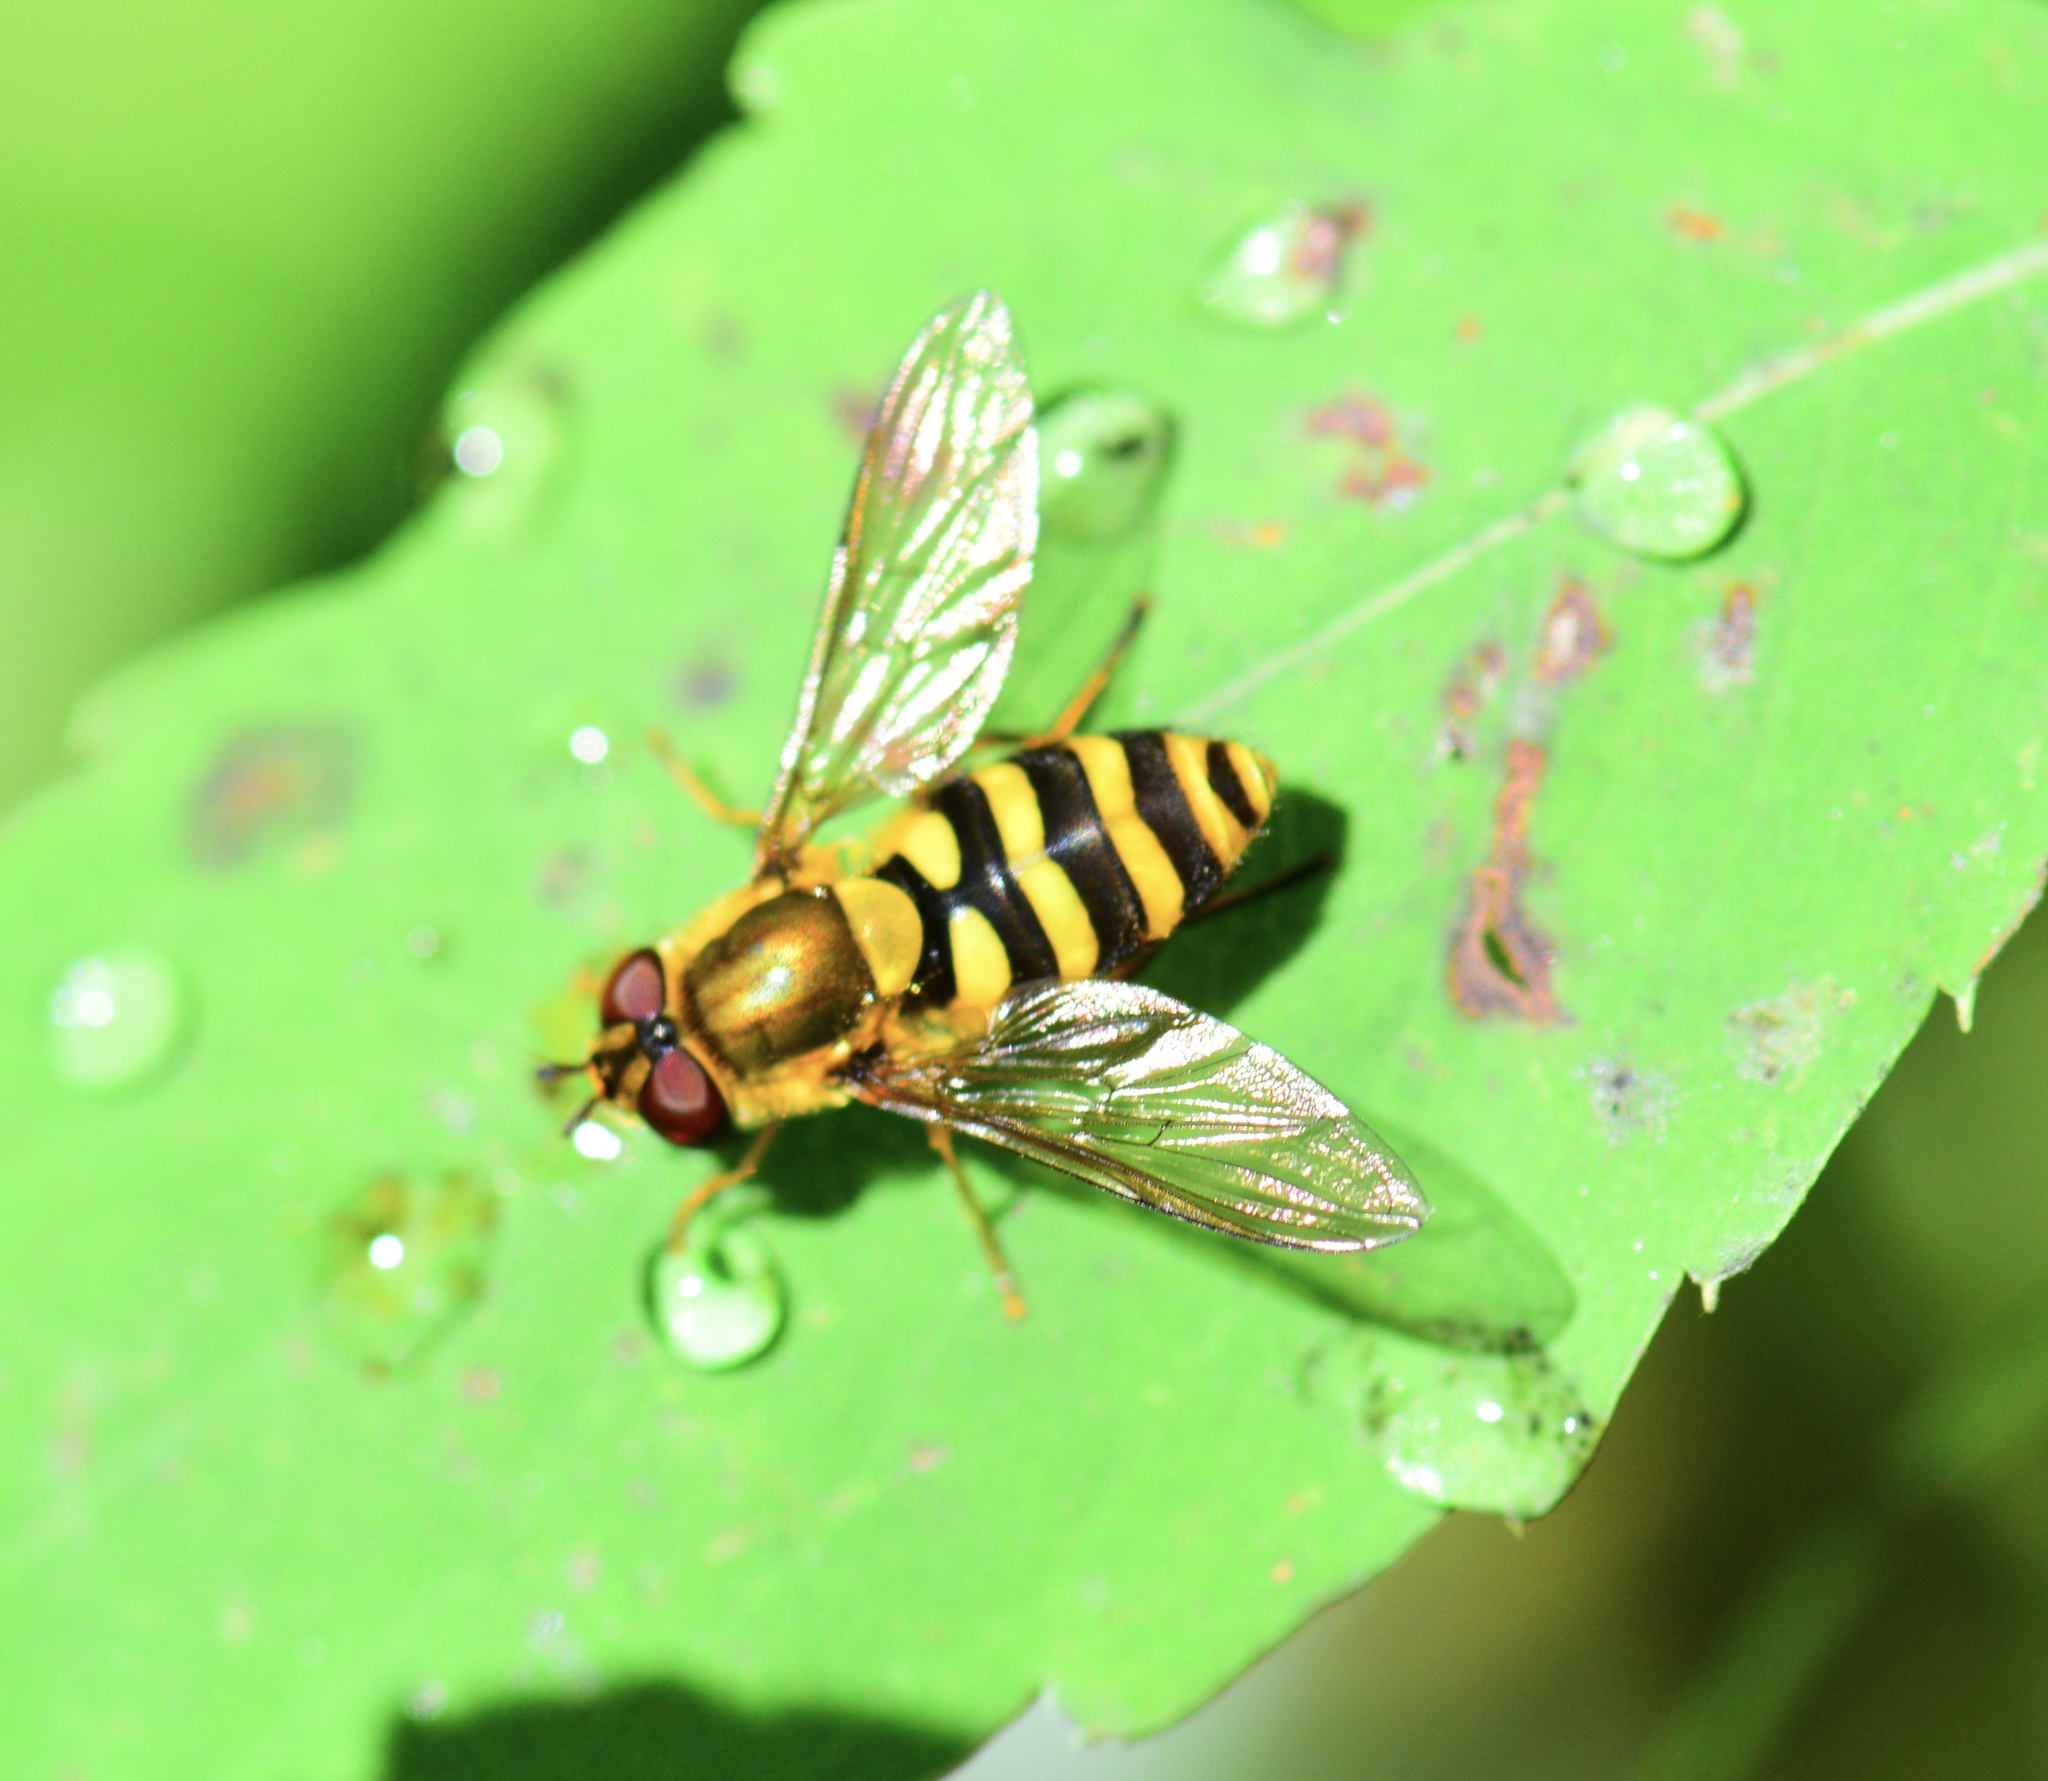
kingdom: Animalia
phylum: Arthropoda
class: Insecta
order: Diptera
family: Syrphidae
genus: Syrphus
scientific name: Syrphus
